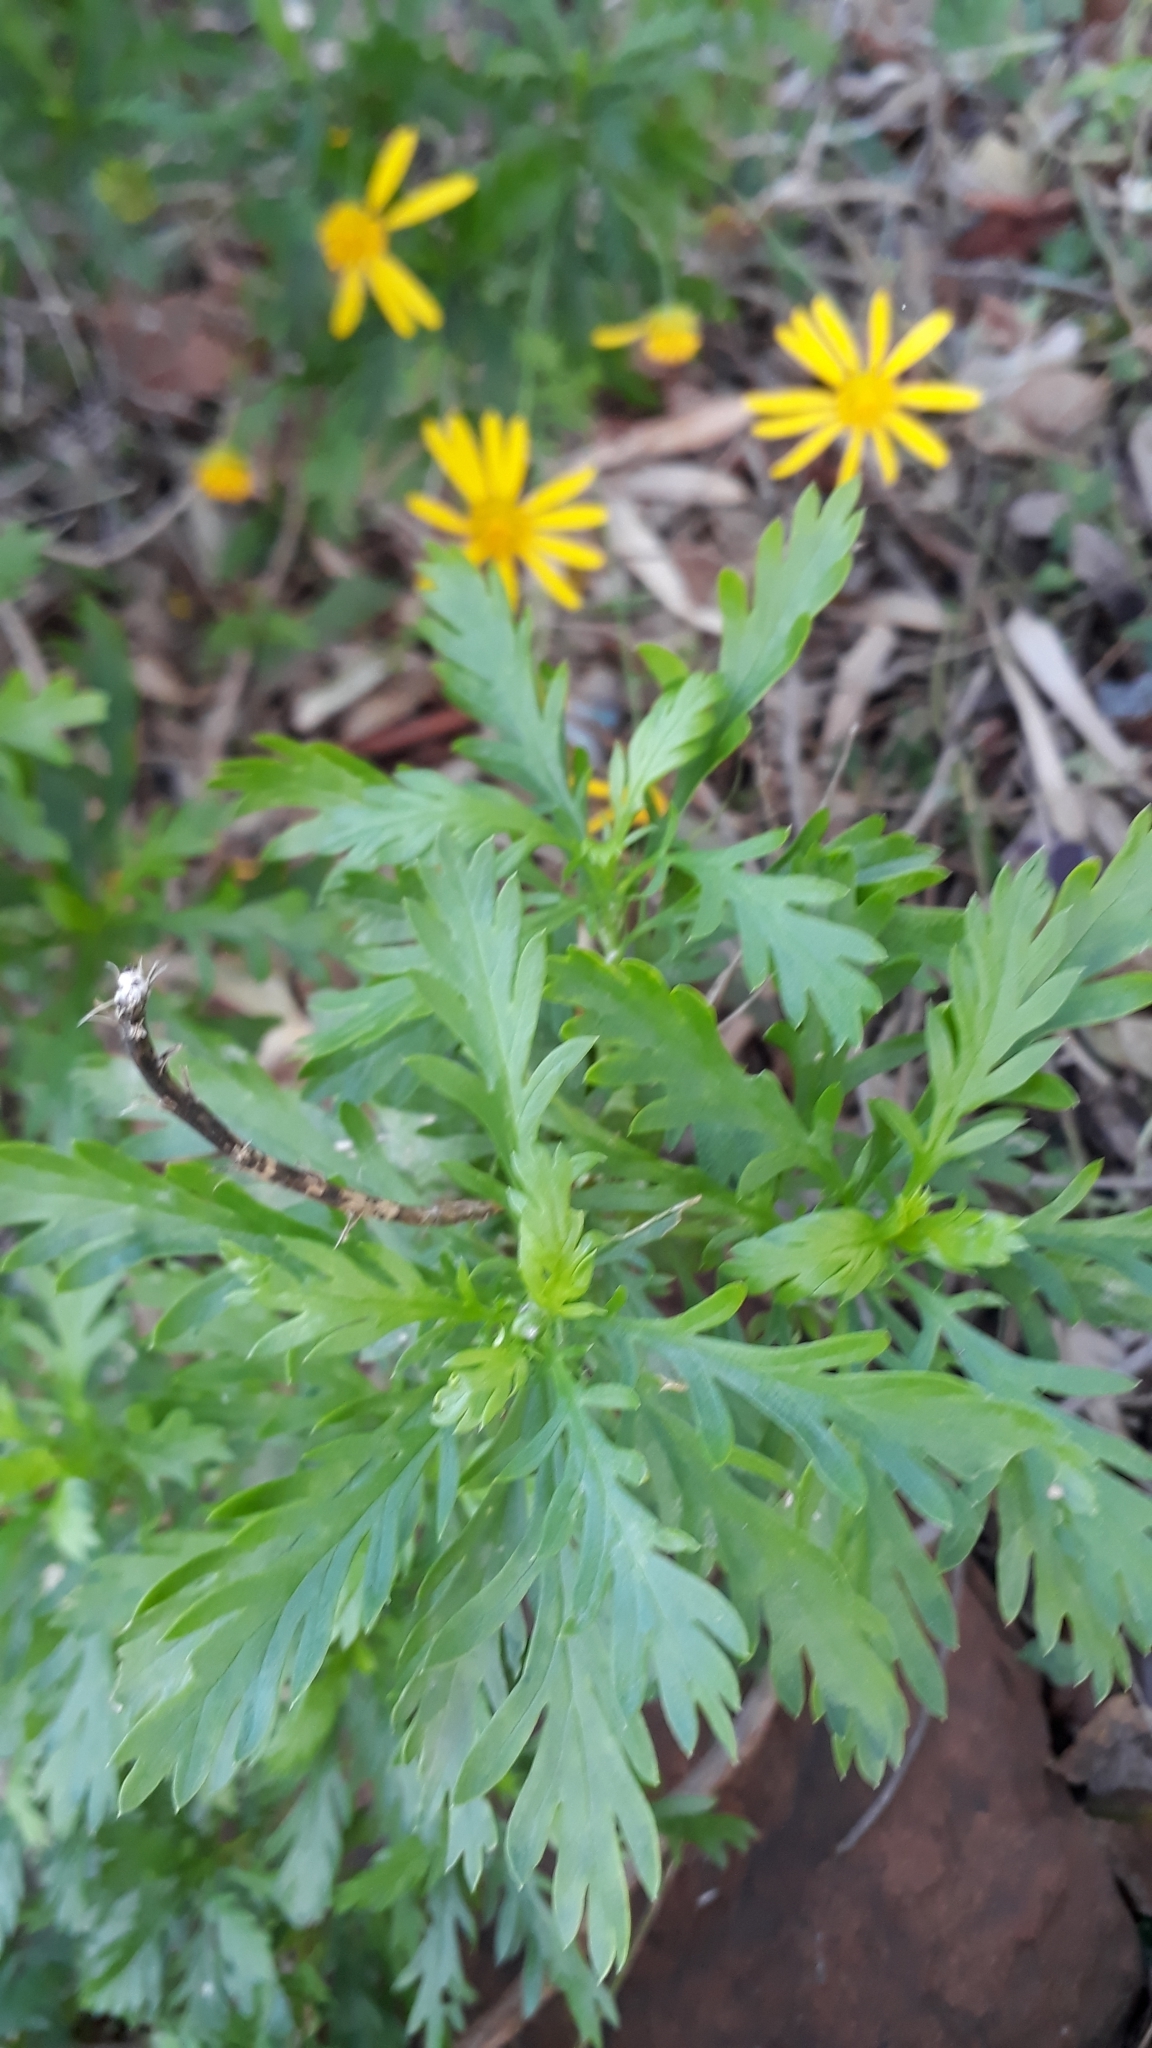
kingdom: Plantae
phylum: Tracheophyta
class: Magnoliopsida
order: Asterales
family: Asteraceae
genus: Euryops
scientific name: Euryops chrysanthemoides
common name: Bull's eye
